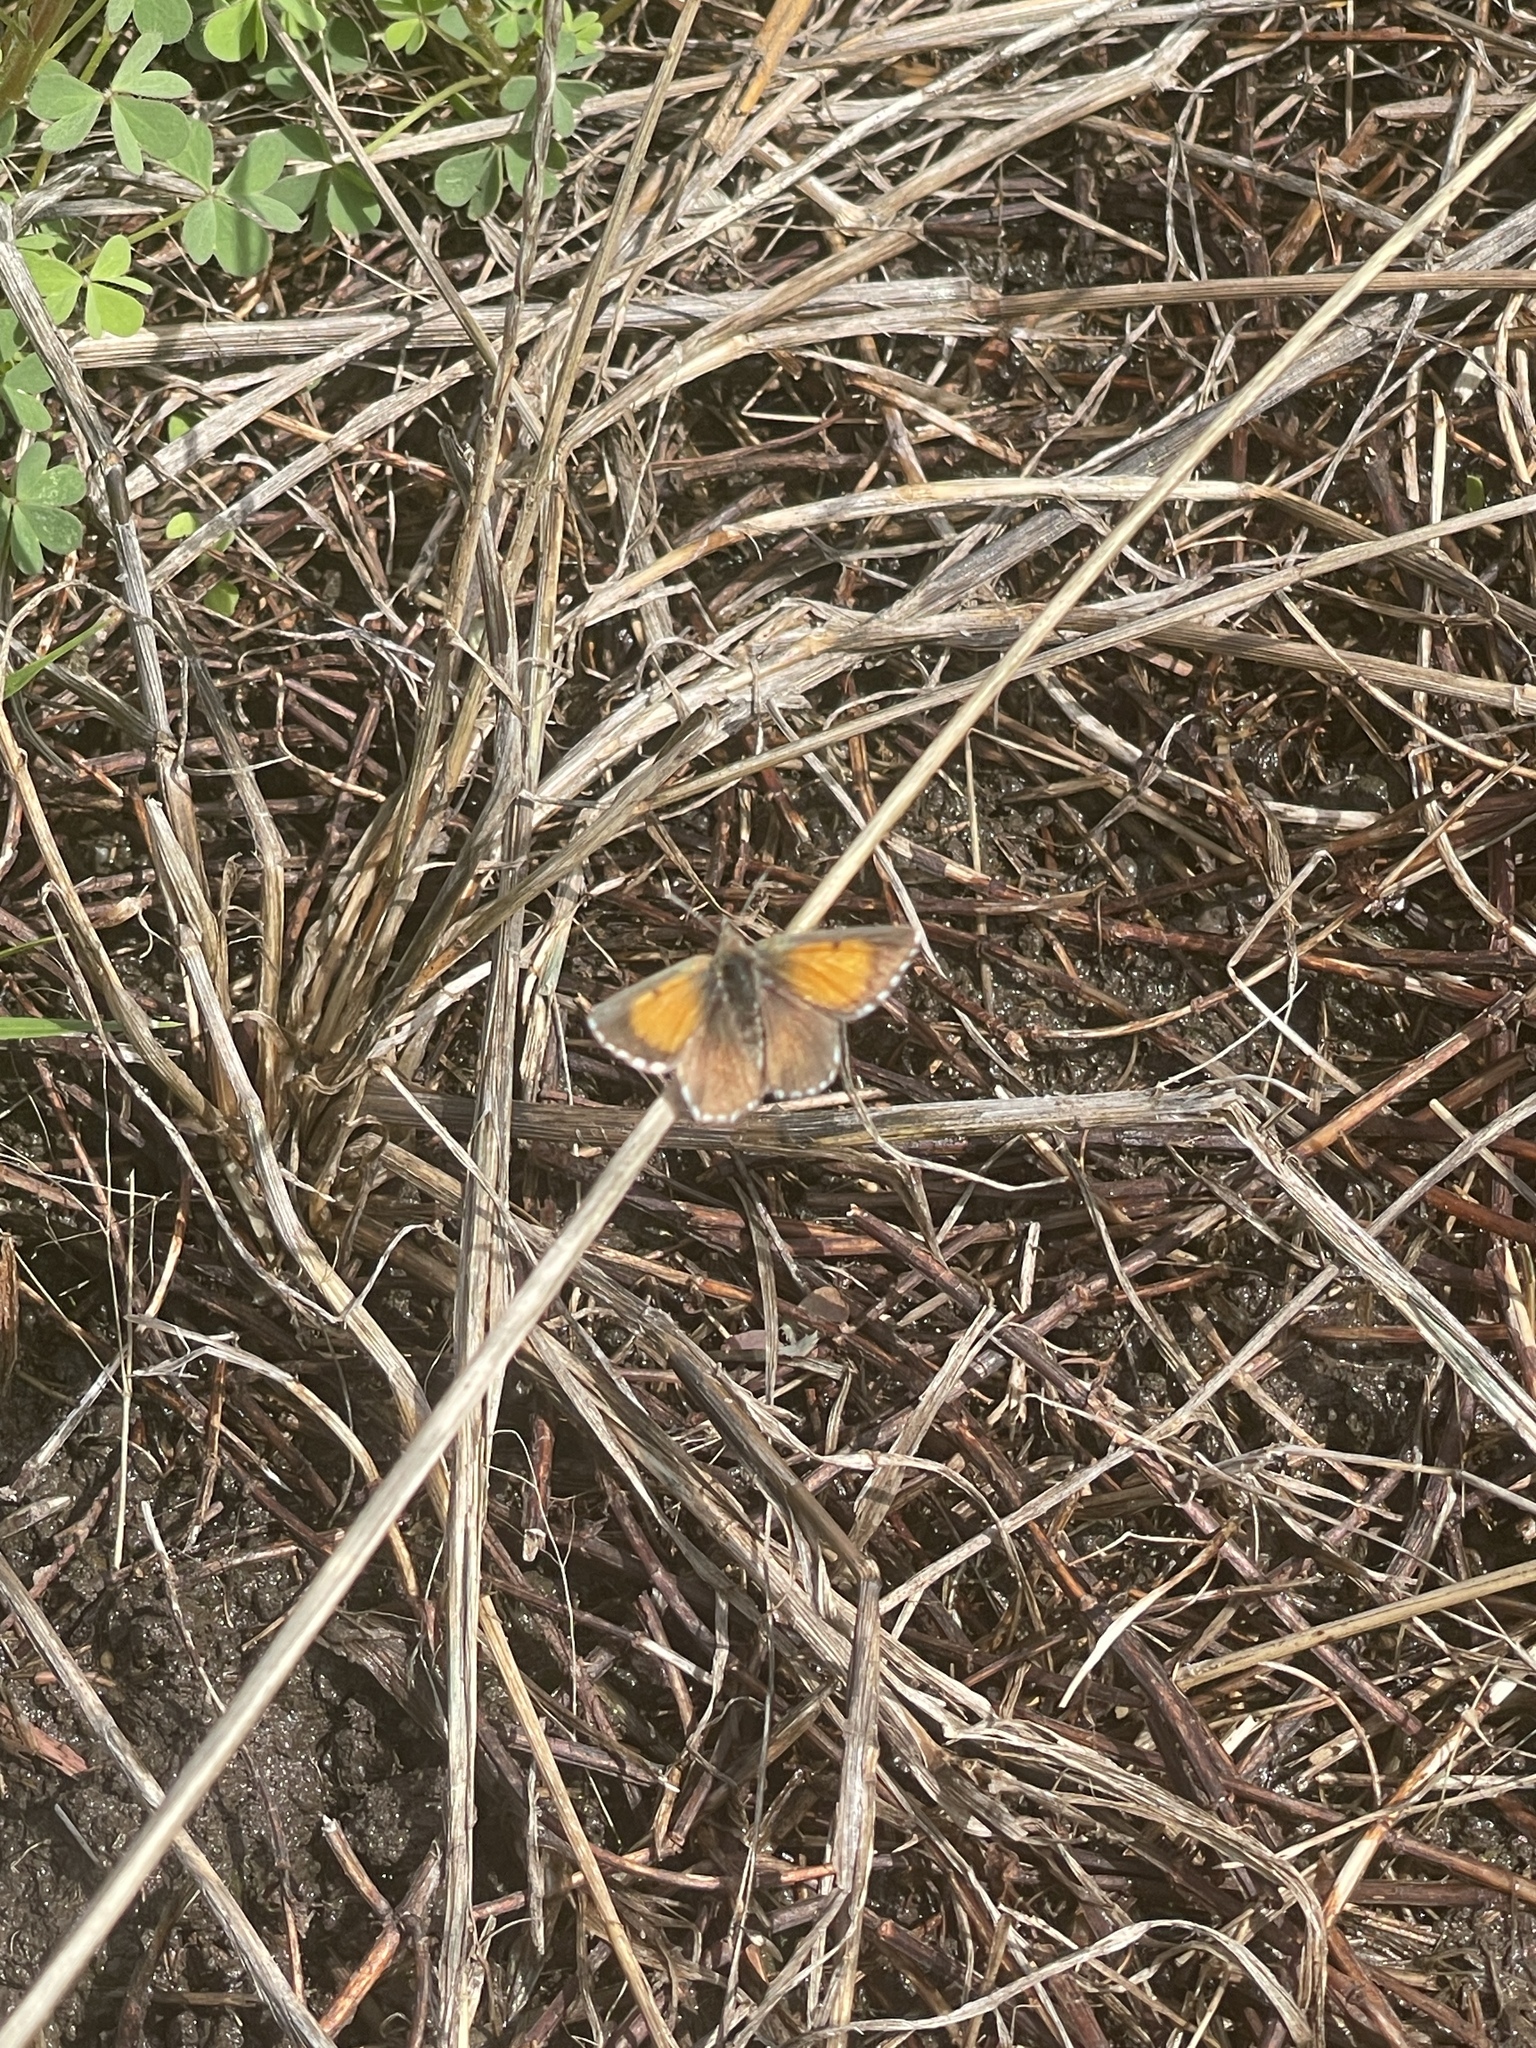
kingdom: Animalia
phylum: Arthropoda
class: Insecta
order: Lepidoptera
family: Lycaenidae
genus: Lucia
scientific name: Lucia limbaria
